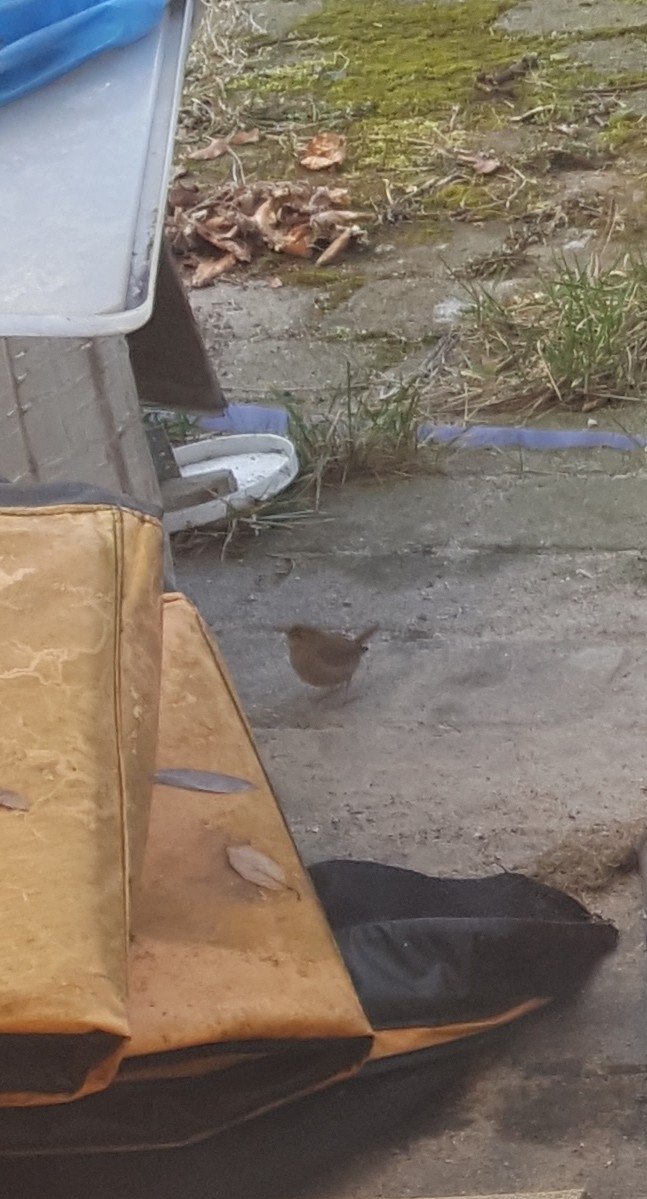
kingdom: Animalia
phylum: Chordata
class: Aves
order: Passeriformes
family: Troglodytidae
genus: Troglodytes
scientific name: Troglodytes troglodytes
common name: Eurasian wren
